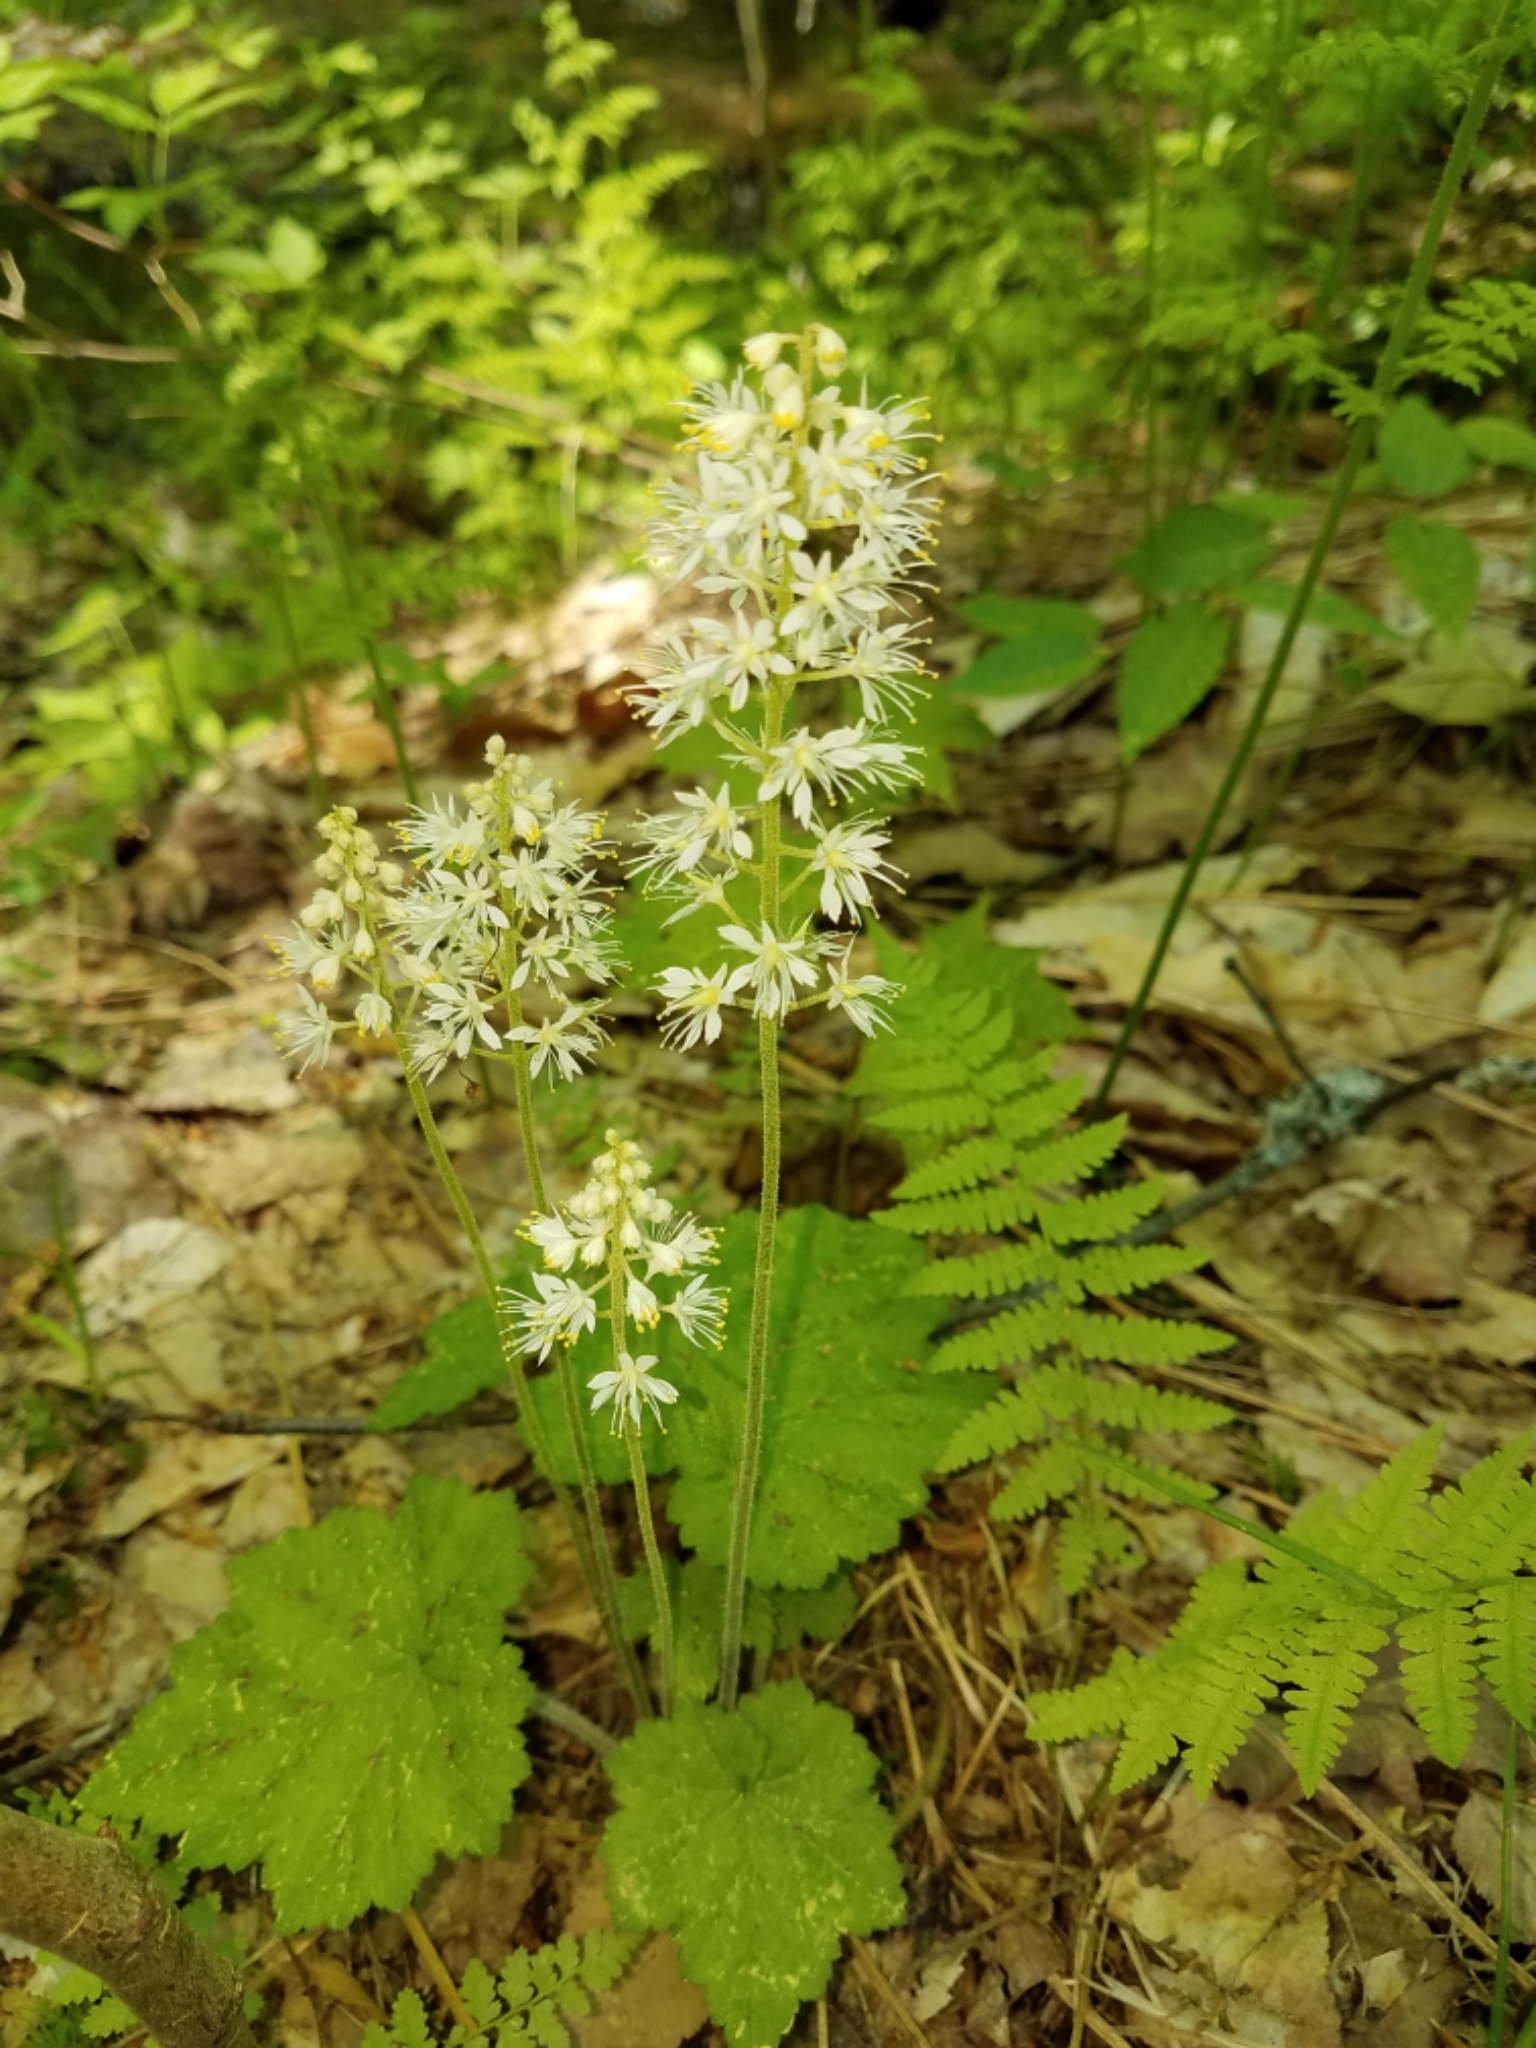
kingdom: Plantae
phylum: Tracheophyta
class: Magnoliopsida
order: Saxifragales
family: Saxifragaceae
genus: Tiarella
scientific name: Tiarella stolonifera
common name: Stoloniferous foamflower
